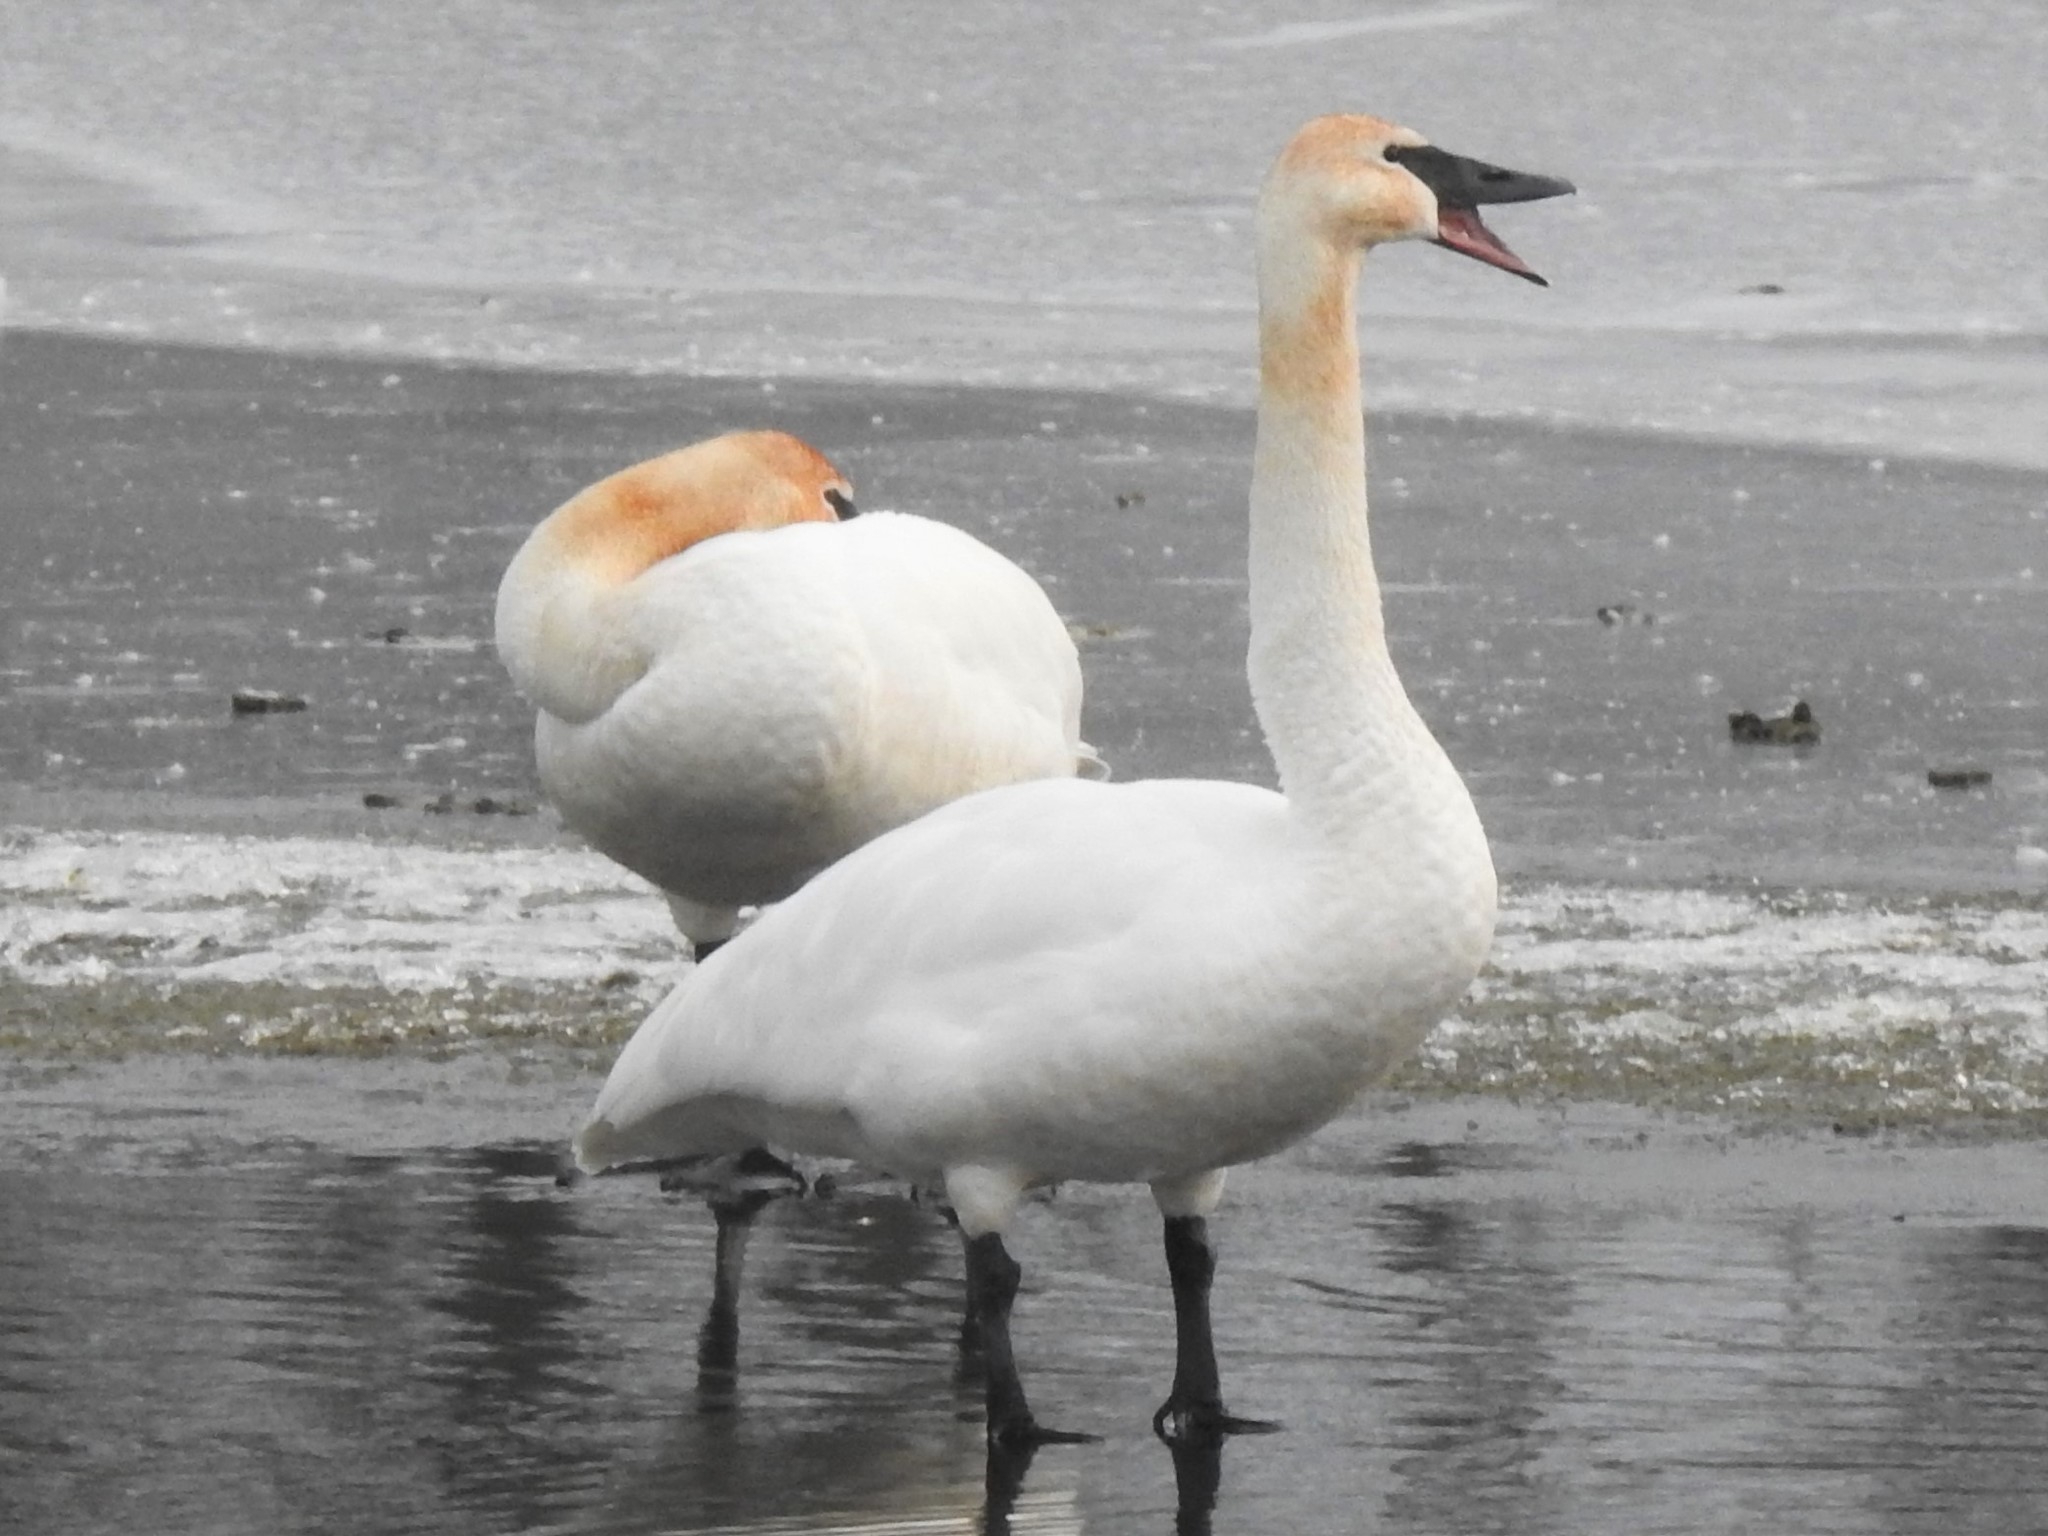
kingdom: Animalia
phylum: Chordata
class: Aves
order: Anseriformes
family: Anatidae
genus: Cygnus
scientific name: Cygnus buccinator
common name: Trumpeter swan
